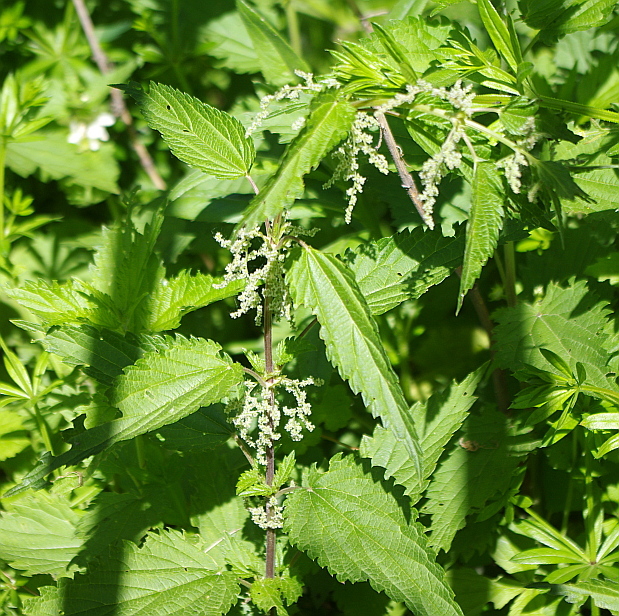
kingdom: Plantae
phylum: Tracheophyta
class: Magnoliopsida
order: Rosales
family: Urticaceae
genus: Urtica
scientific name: Urtica dioica
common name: Common nettle
